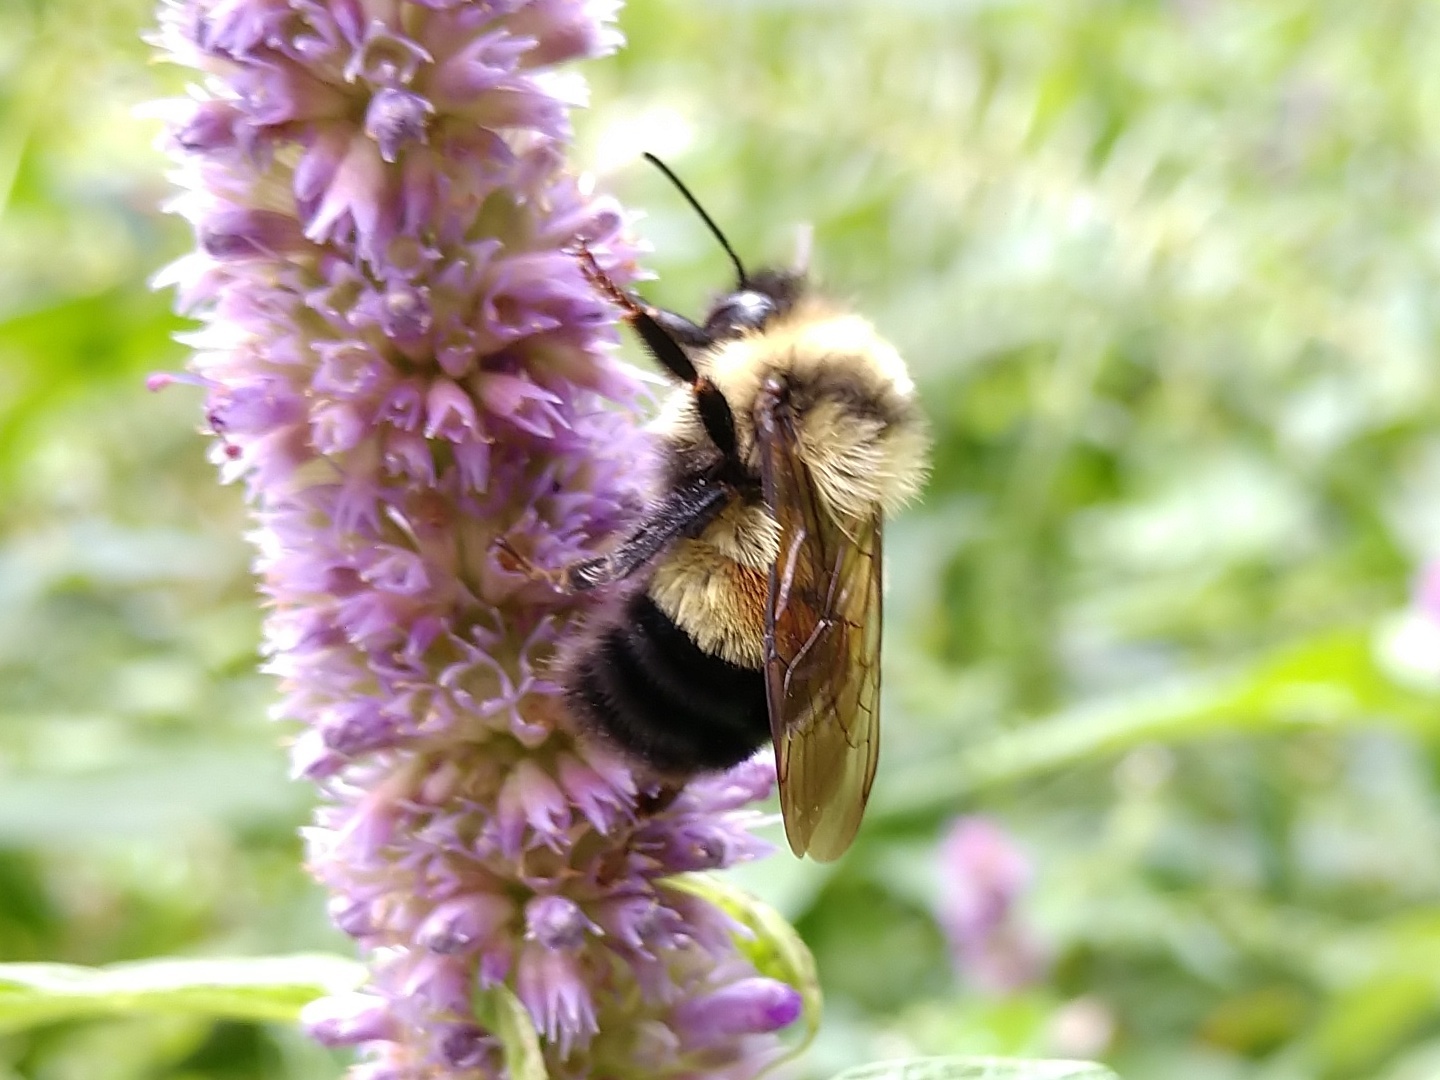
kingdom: Animalia
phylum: Arthropoda
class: Insecta
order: Hymenoptera
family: Apidae
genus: Bombus
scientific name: Bombus affinis
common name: Rusty patched bumble bee
